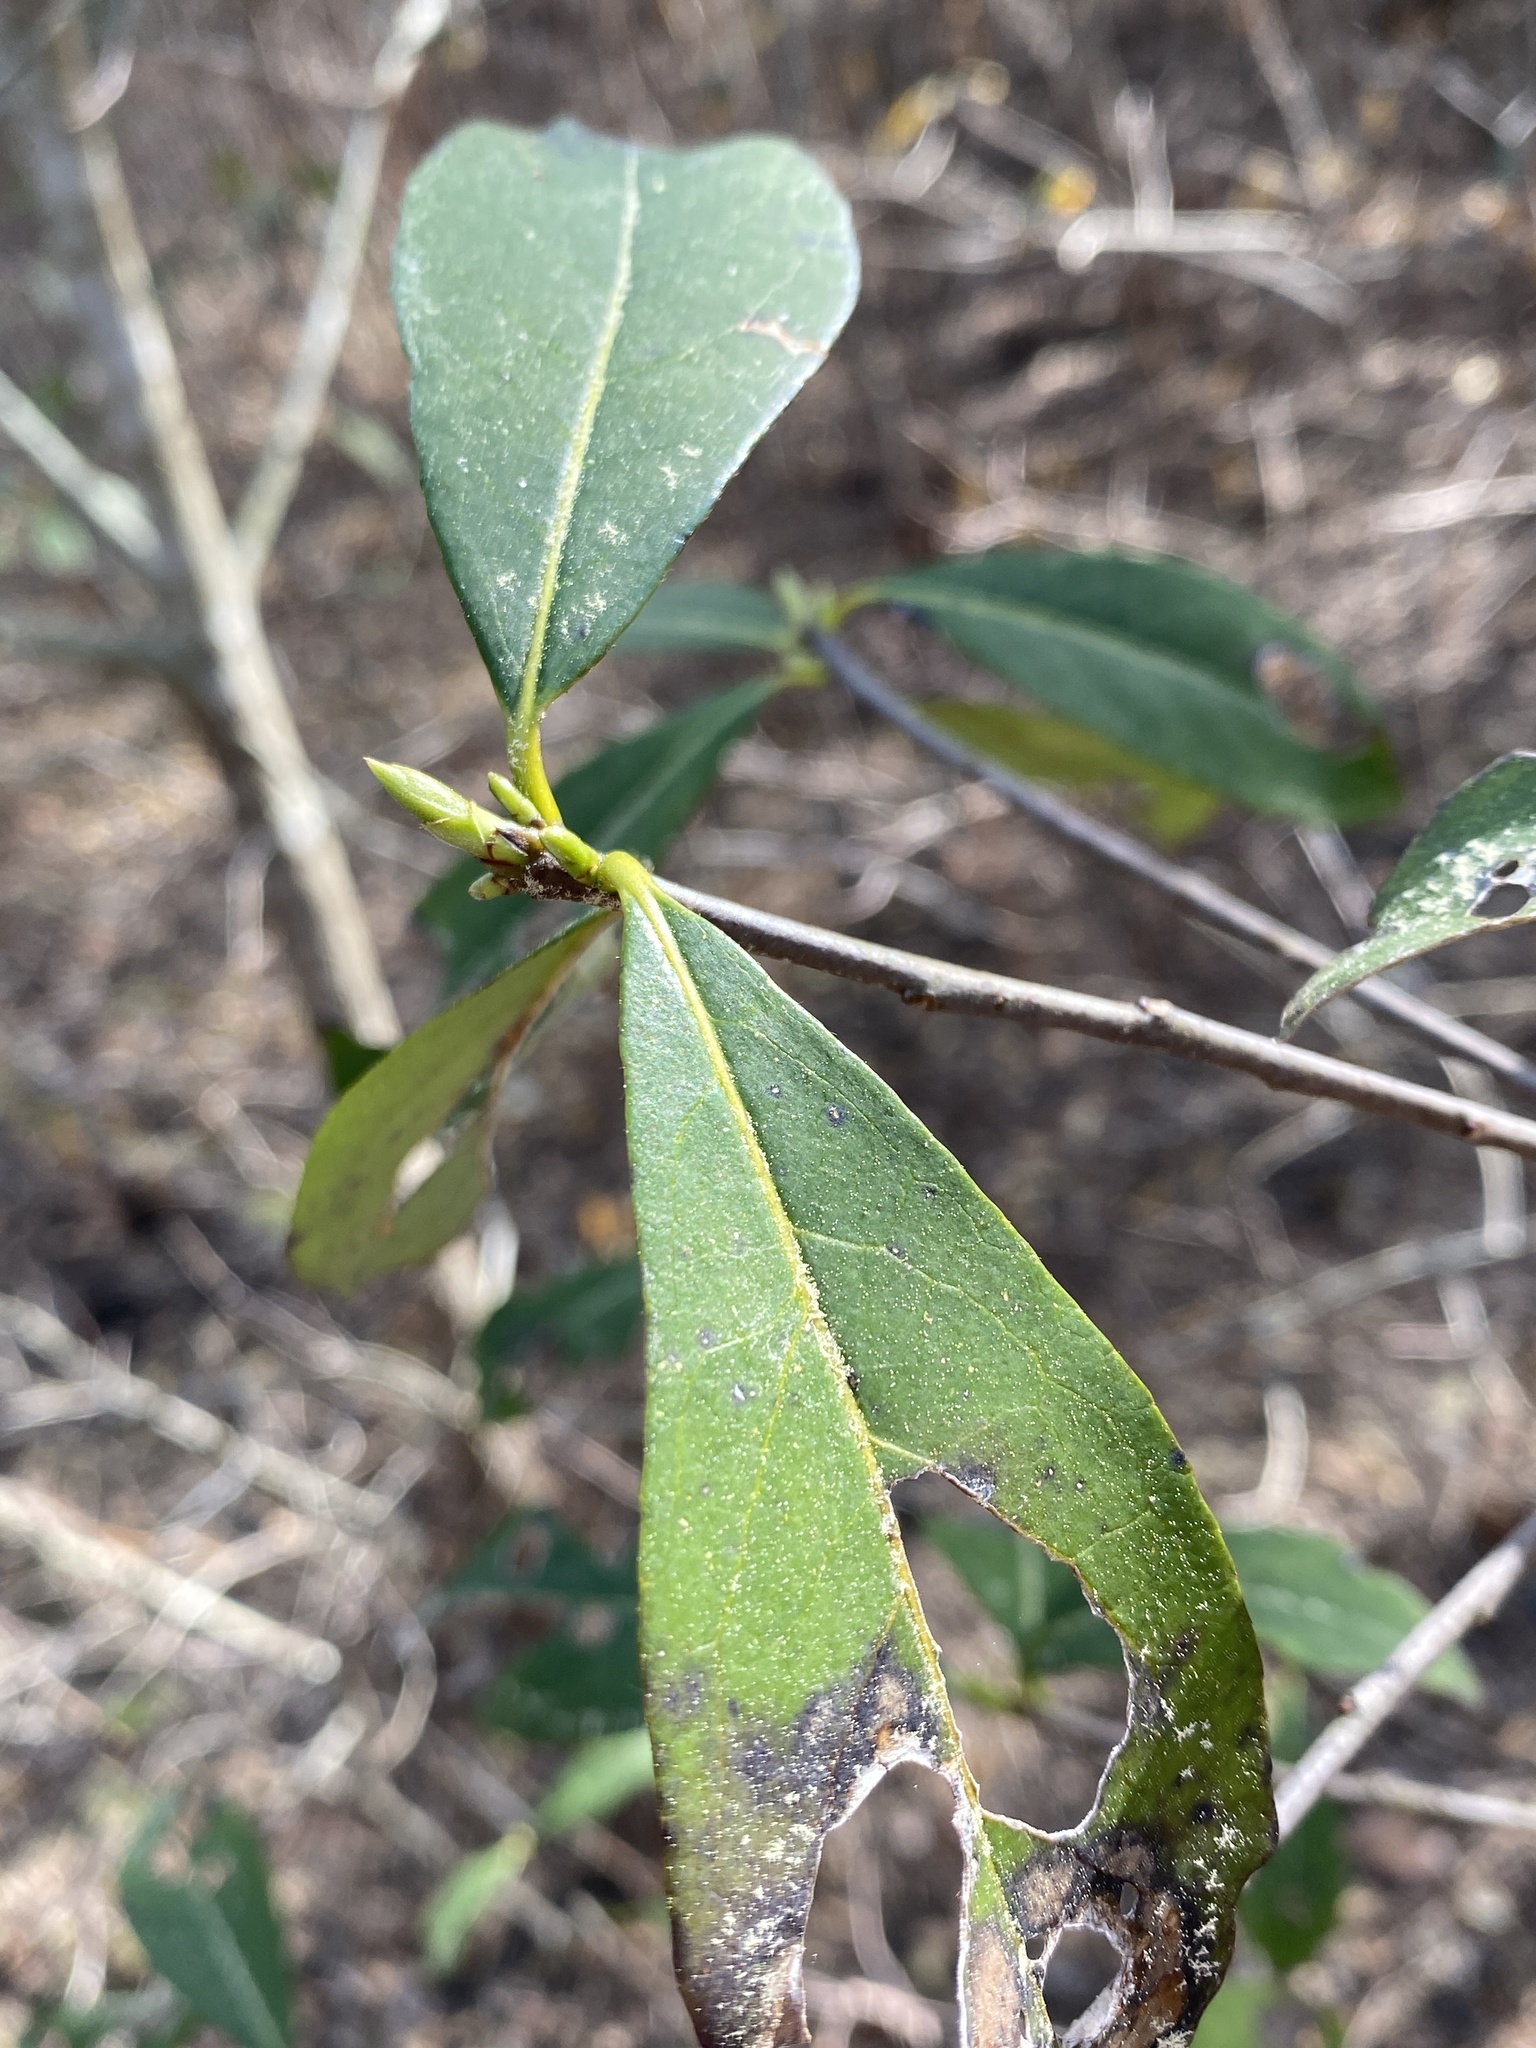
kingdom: Plantae
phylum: Tracheophyta
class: Magnoliopsida
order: Ericales
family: Symplocaceae
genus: Symplocos
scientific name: Symplocos tinctoria
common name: Horse-sugar
